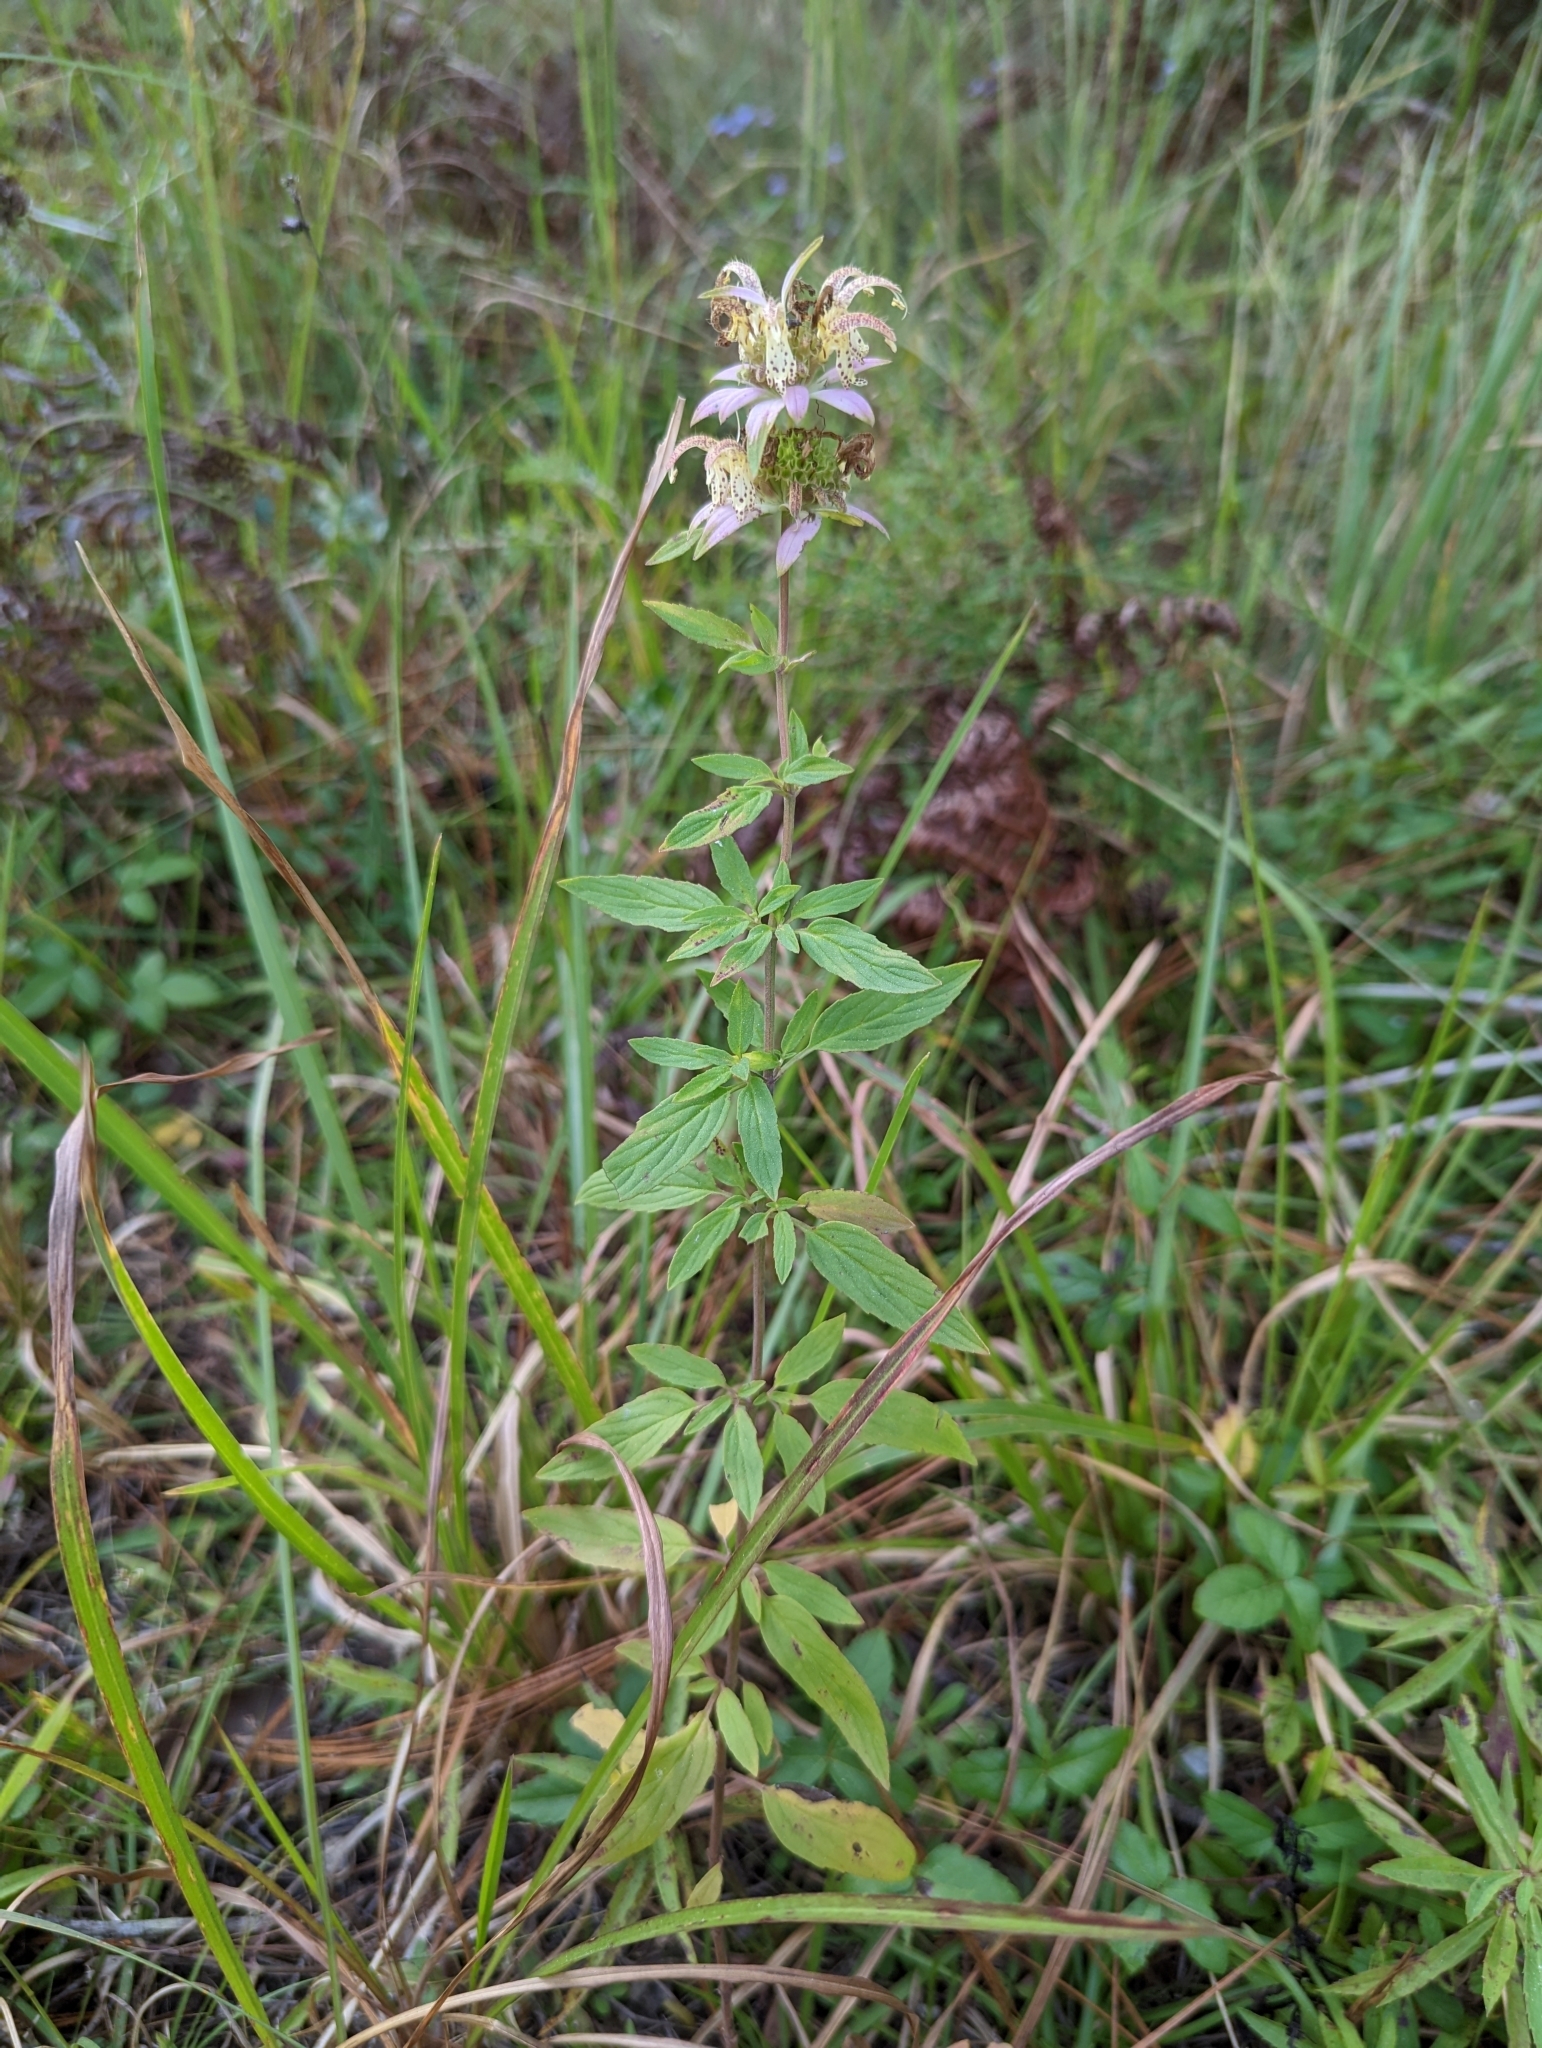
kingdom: Plantae
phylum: Tracheophyta
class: Magnoliopsida
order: Lamiales
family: Lamiaceae
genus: Monarda
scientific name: Monarda punctata
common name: Dotted monarda
